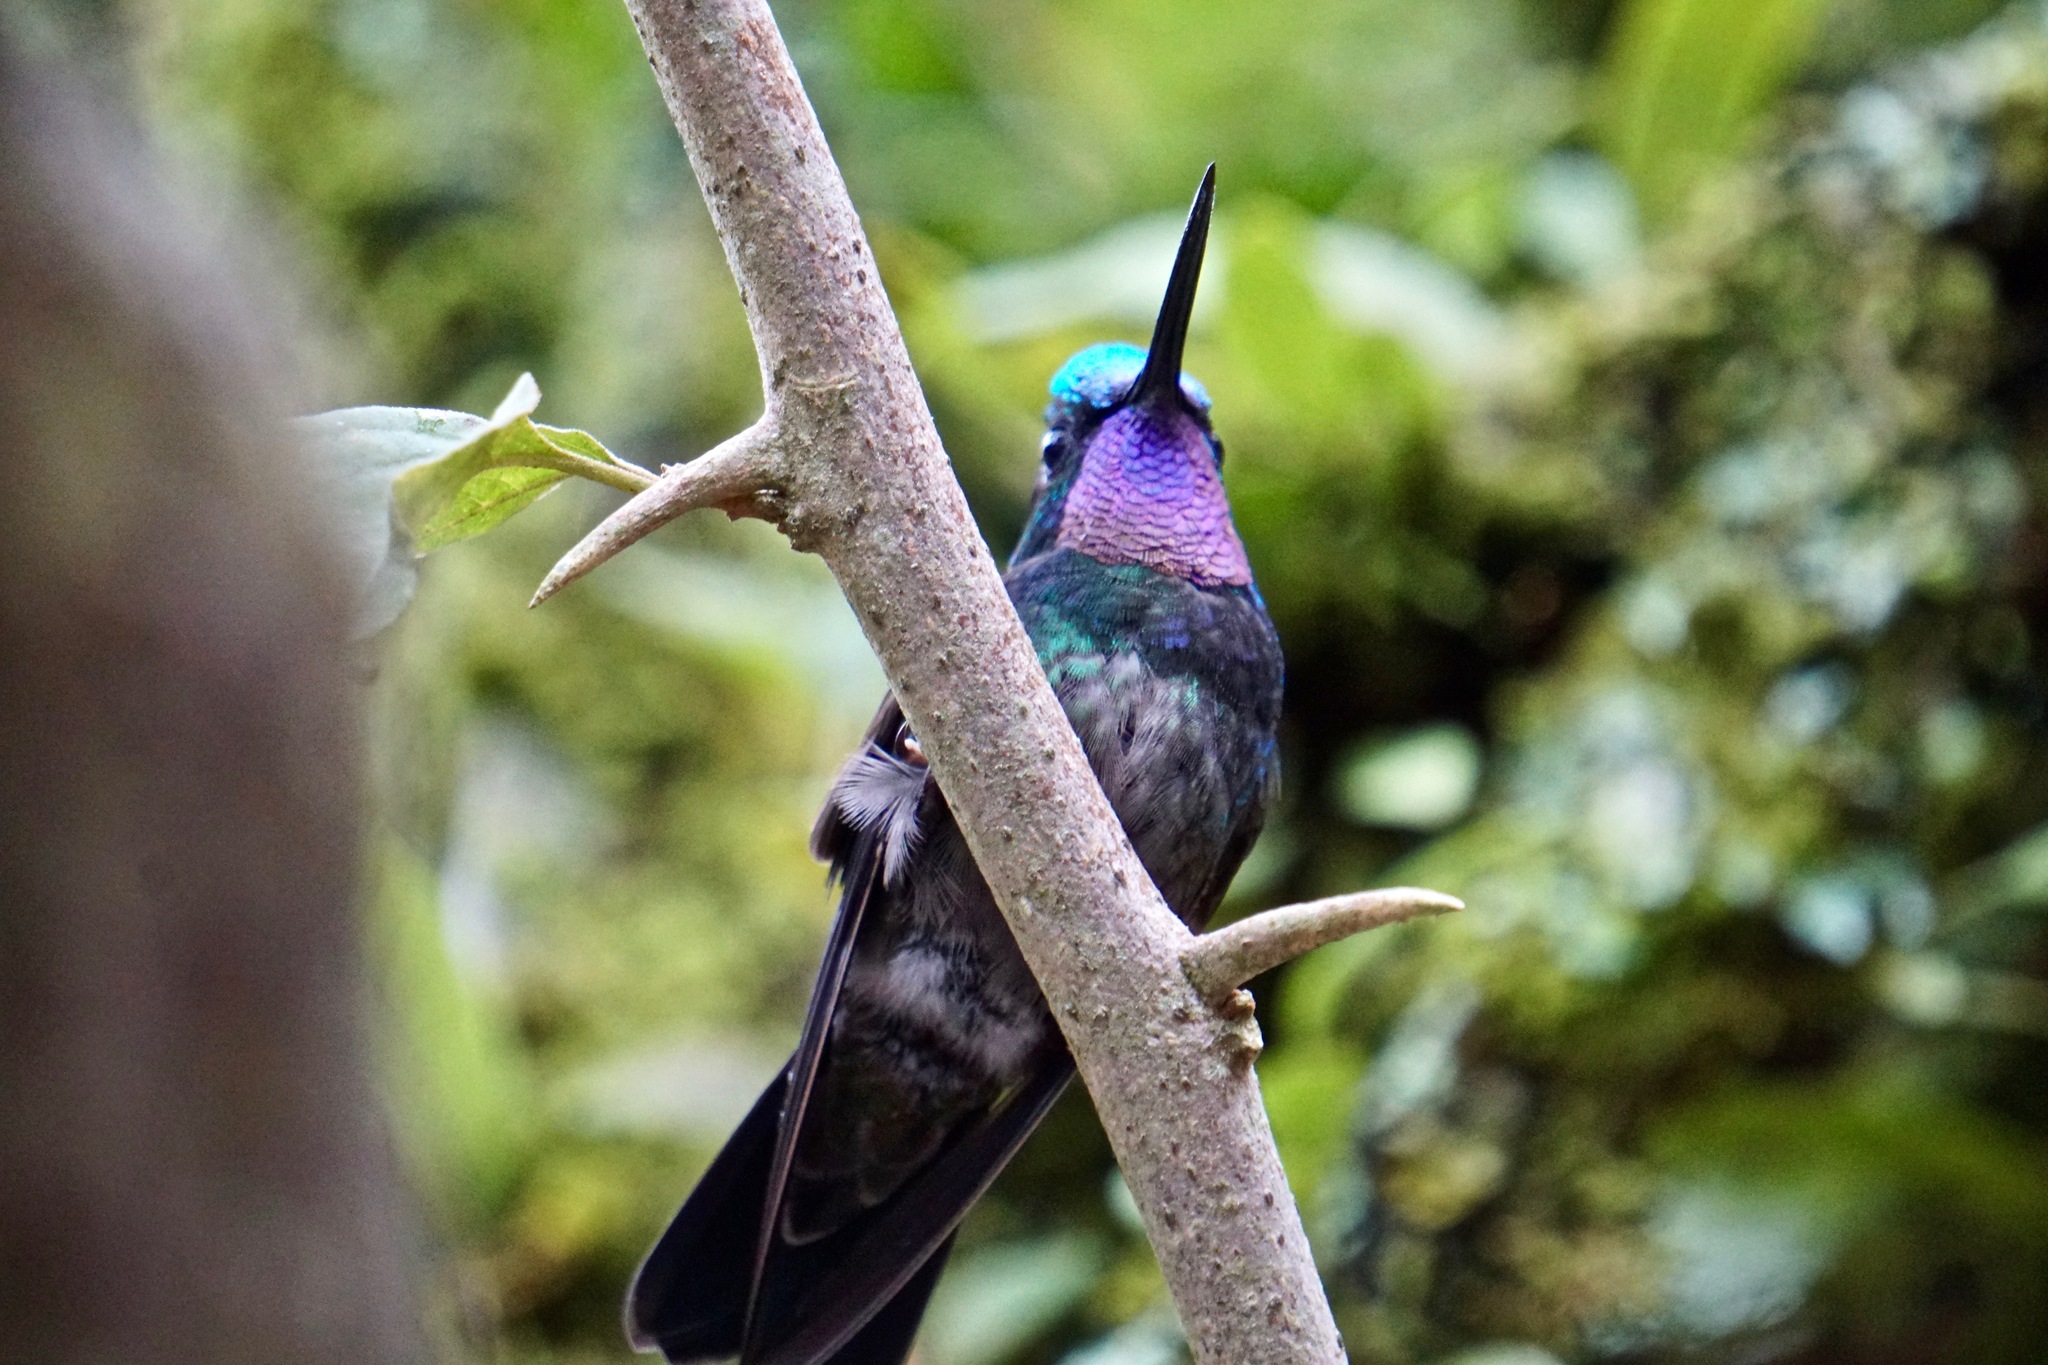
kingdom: Animalia
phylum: Chordata
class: Aves
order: Apodiformes
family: Trochilidae
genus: Lampornis
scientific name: Lampornis calolaemus
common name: Purple-throated mountain-gem
